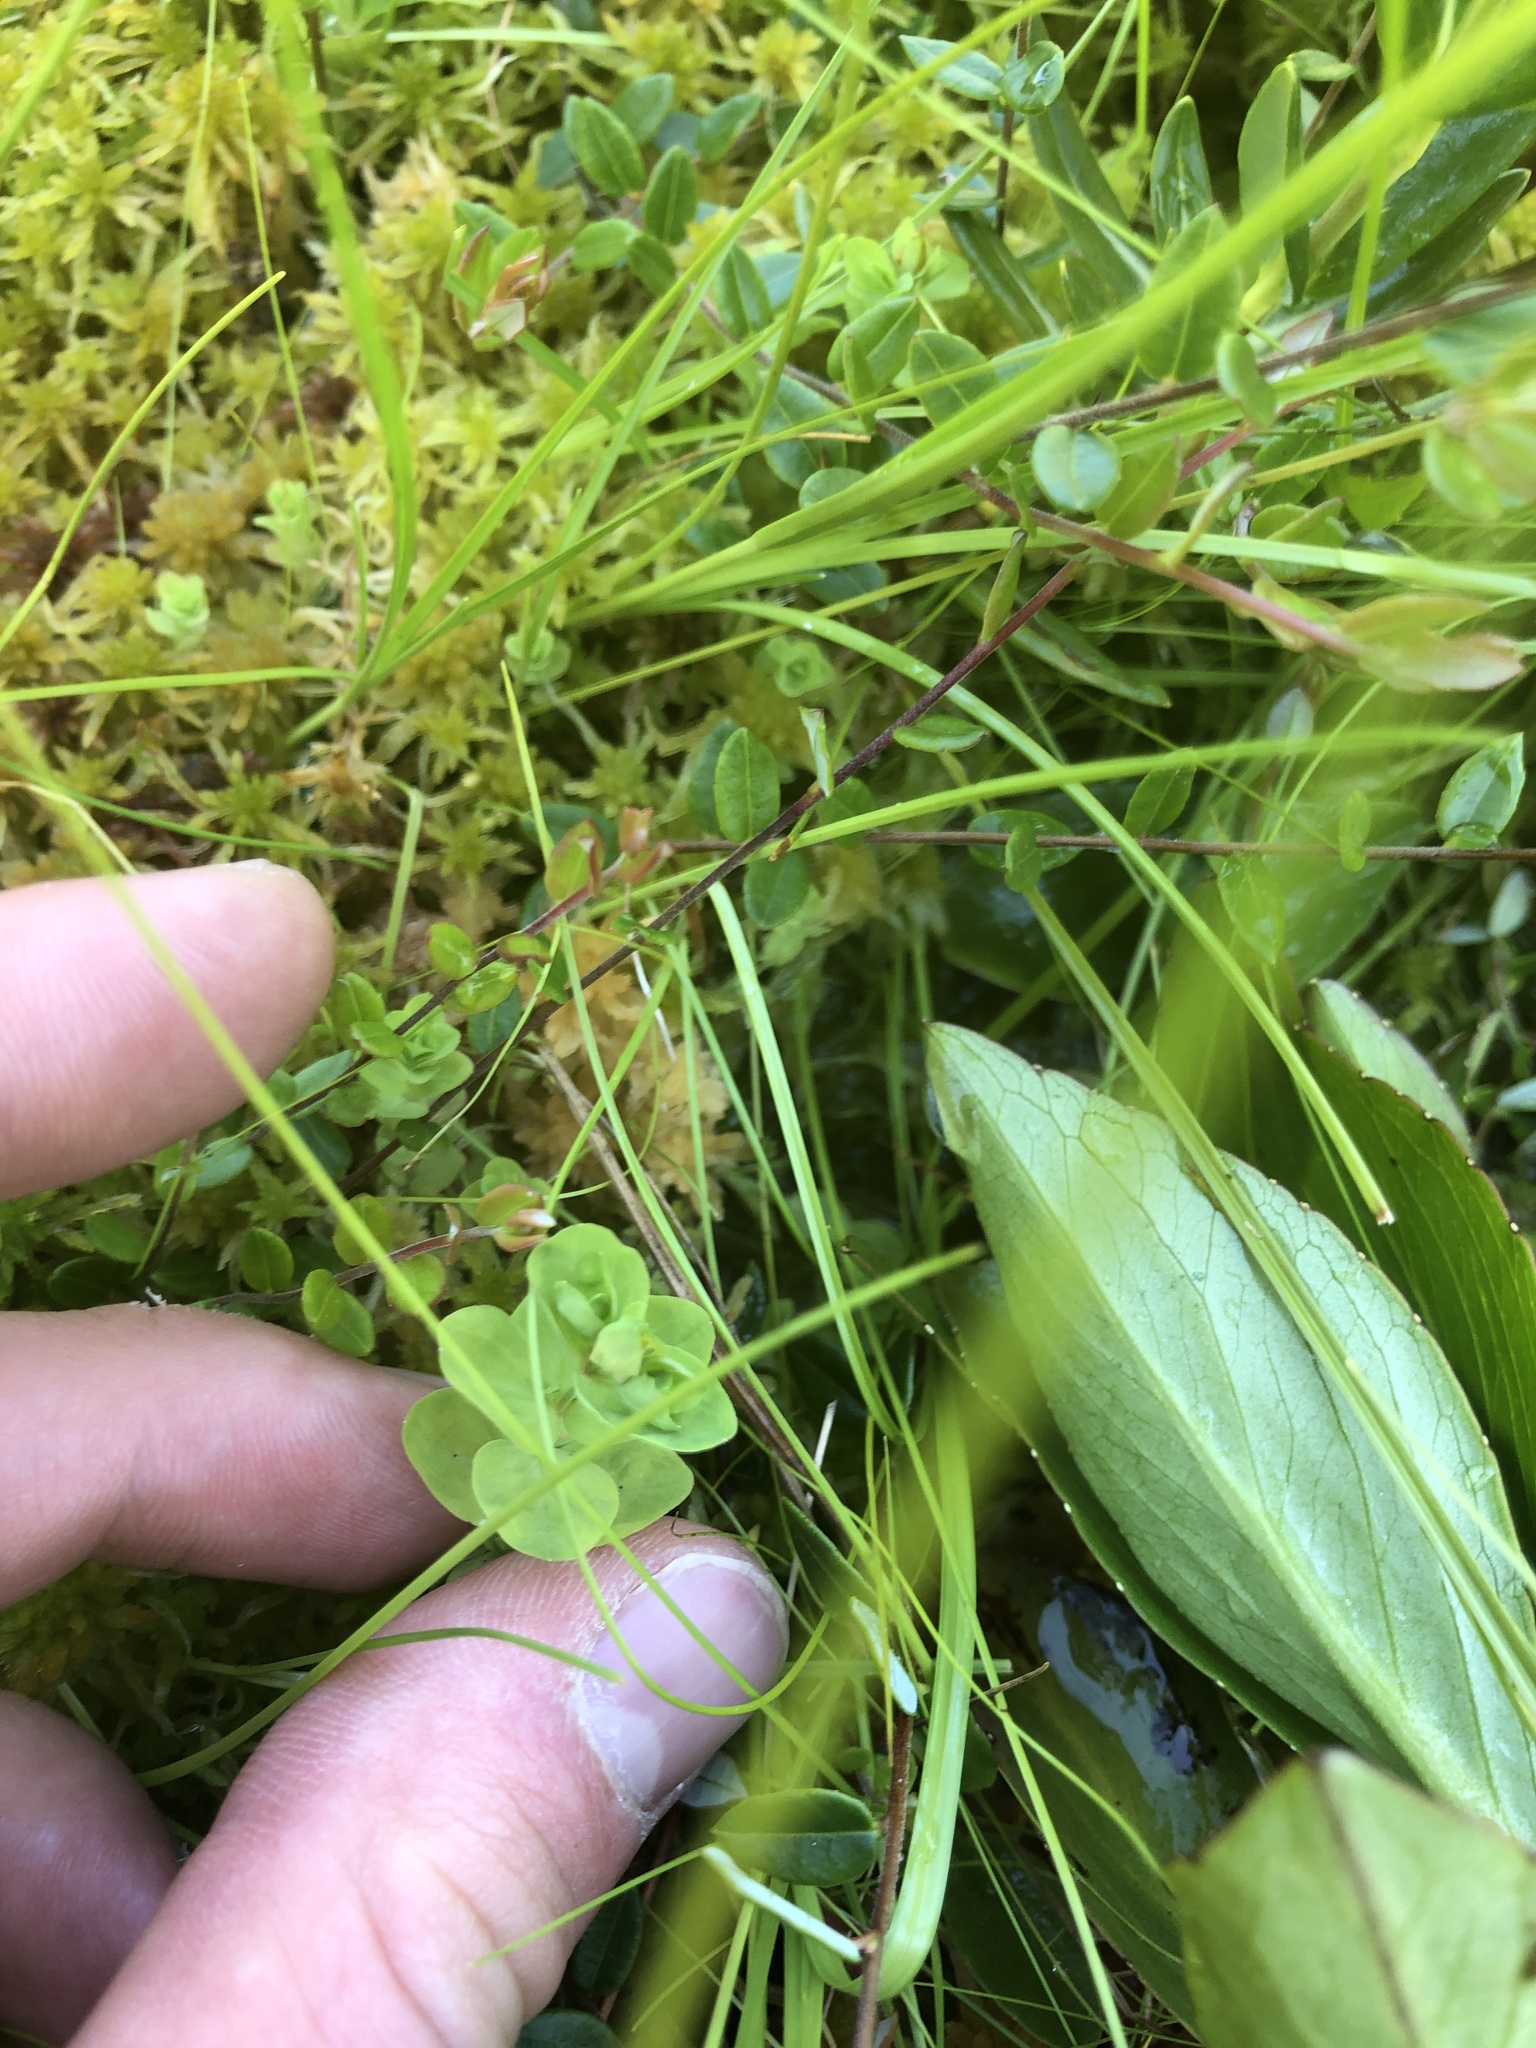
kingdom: Plantae
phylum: Tracheophyta
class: Magnoliopsida
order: Malpighiales
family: Hypericaceae
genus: Hypericum
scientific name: Hypericum anagalloides
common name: Bog st. john's-wort
